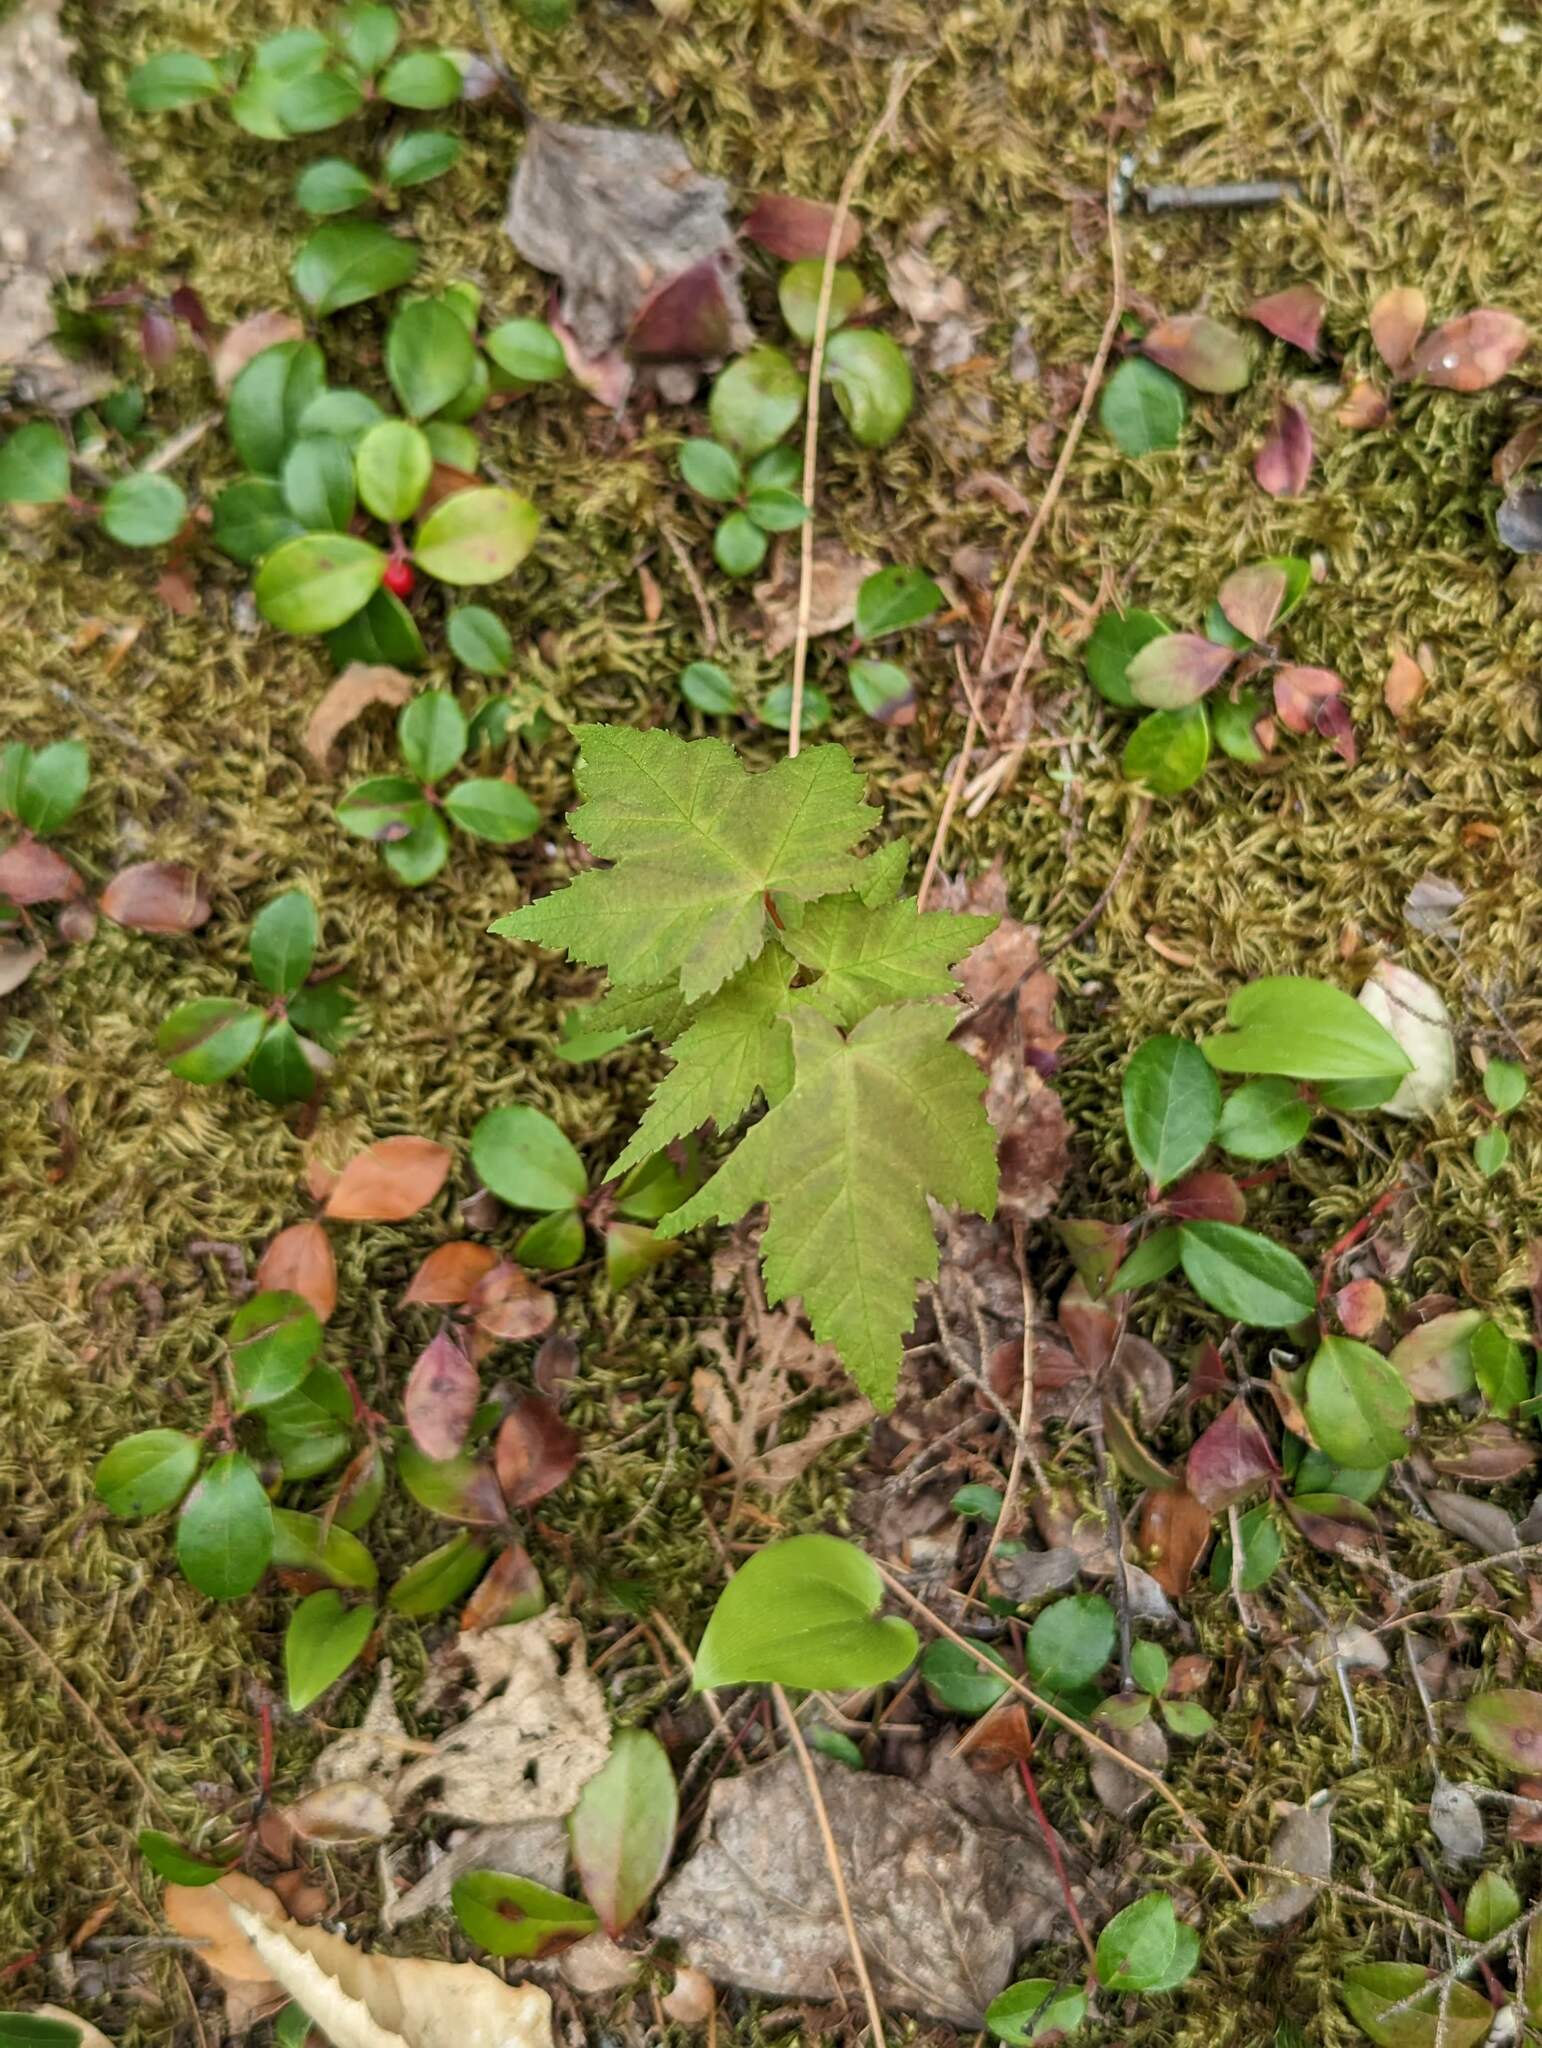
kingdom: Plantae
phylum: Tracheophyta
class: Magnoliopsida
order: Sapindales
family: Sapindaceae
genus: Acer
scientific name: Acer rubrum
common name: Red maple
